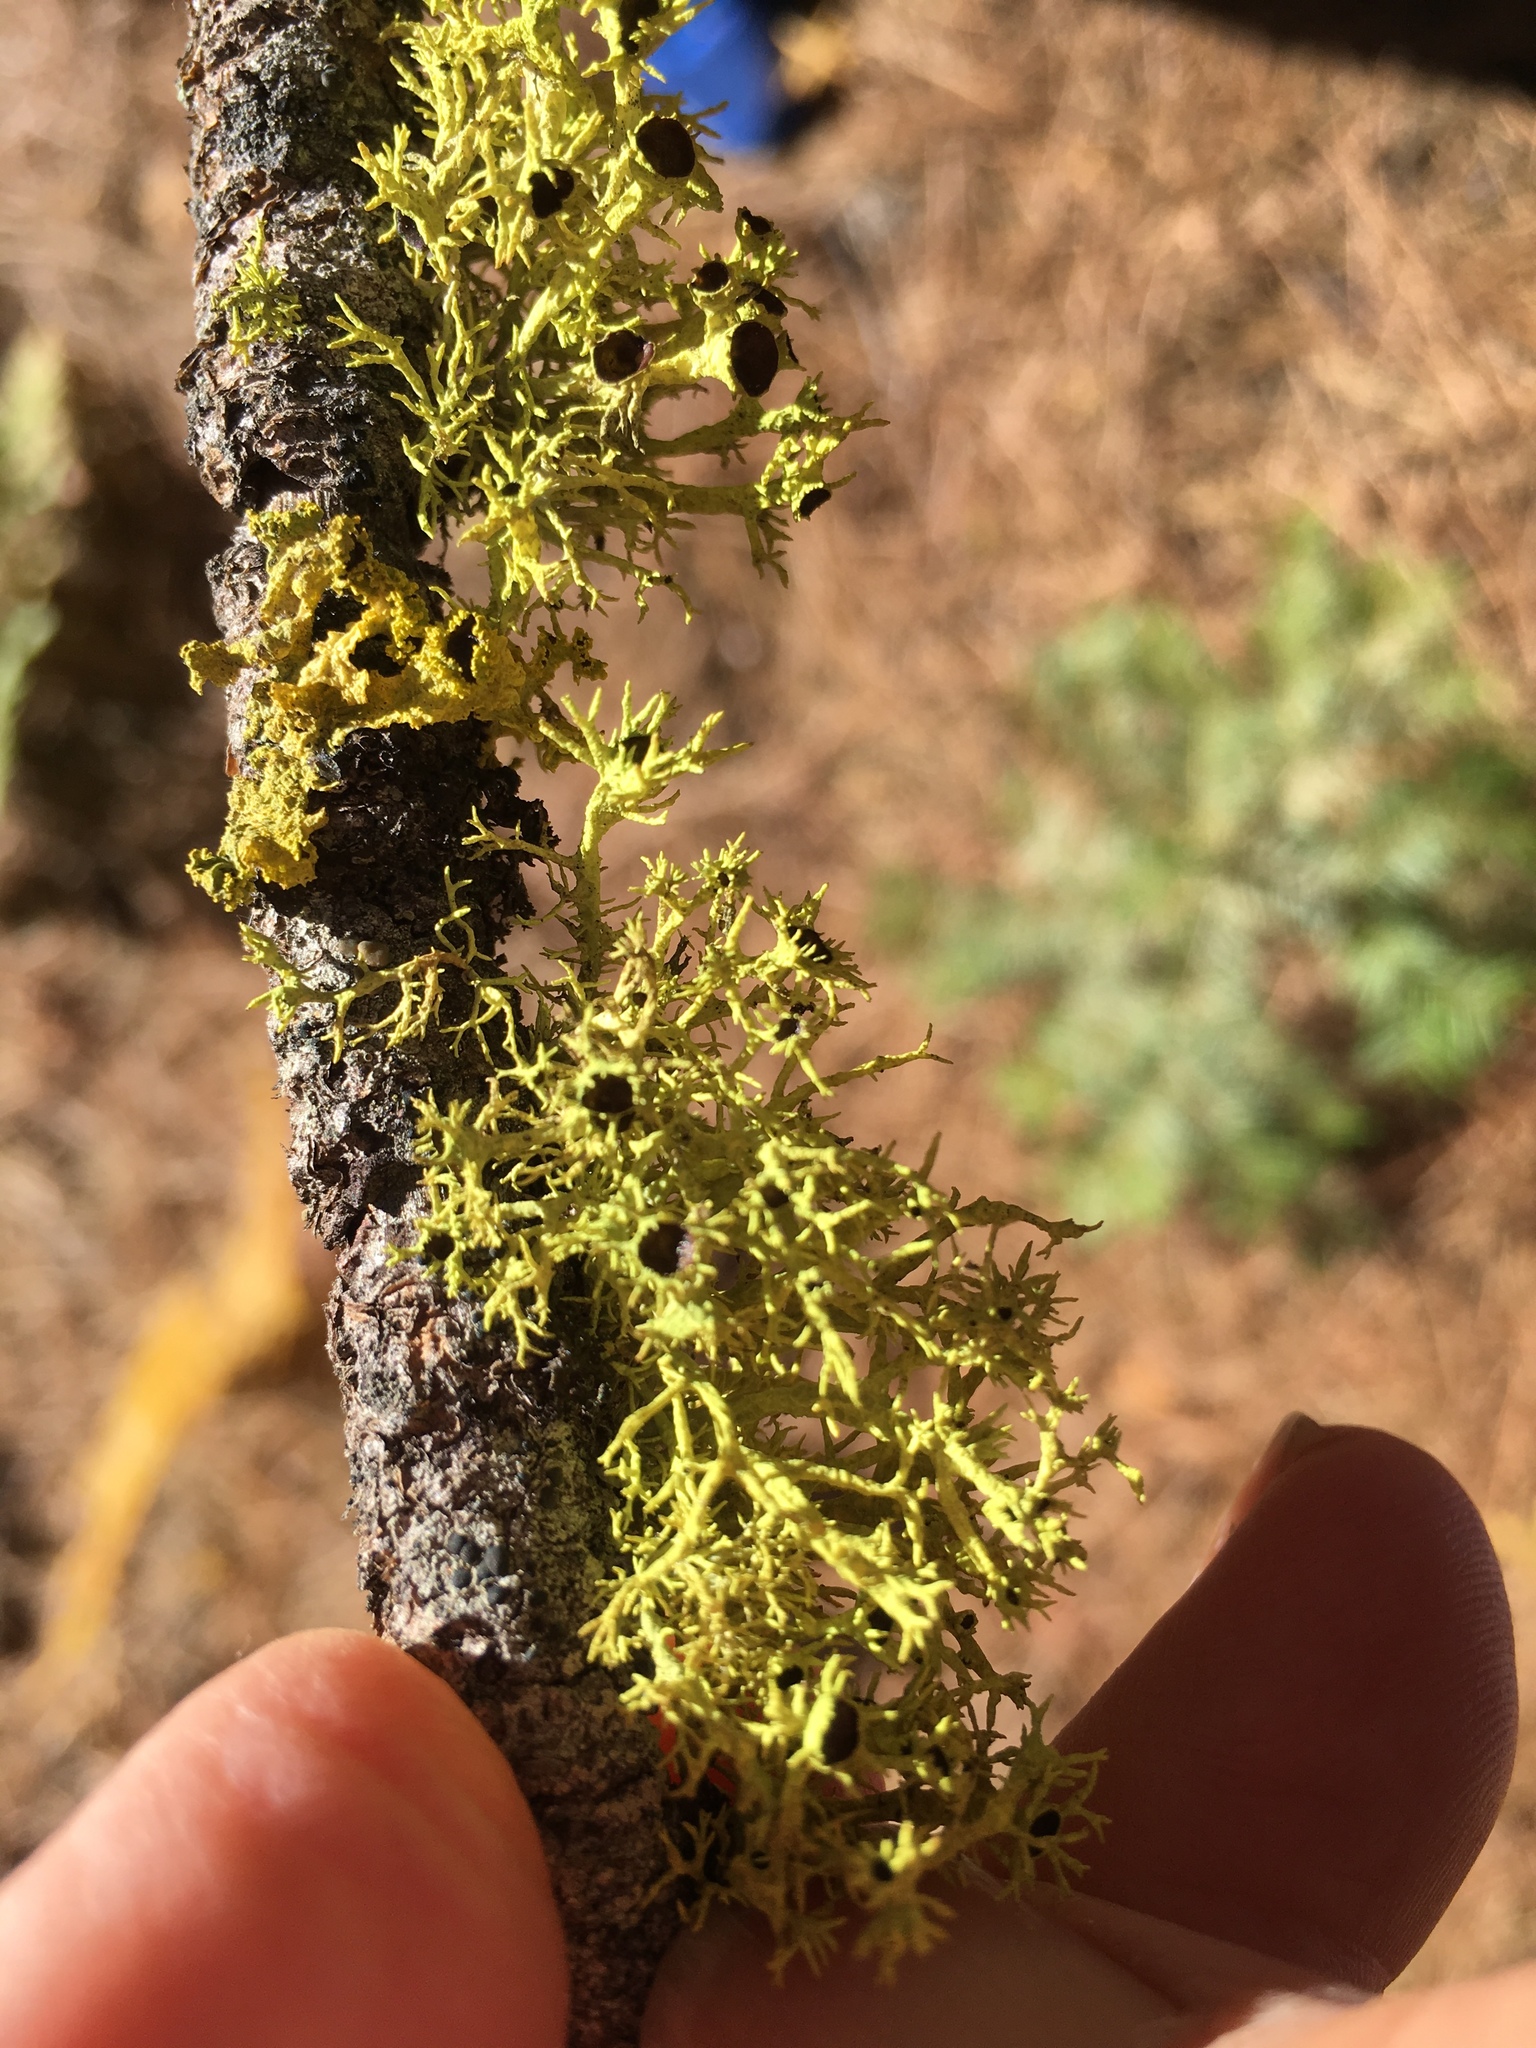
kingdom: Fungi
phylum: Ascomycota
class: Lecanoromycetes
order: Lecanorales
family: Parmeliaceae
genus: Letharia
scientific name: Letharia columbiana
